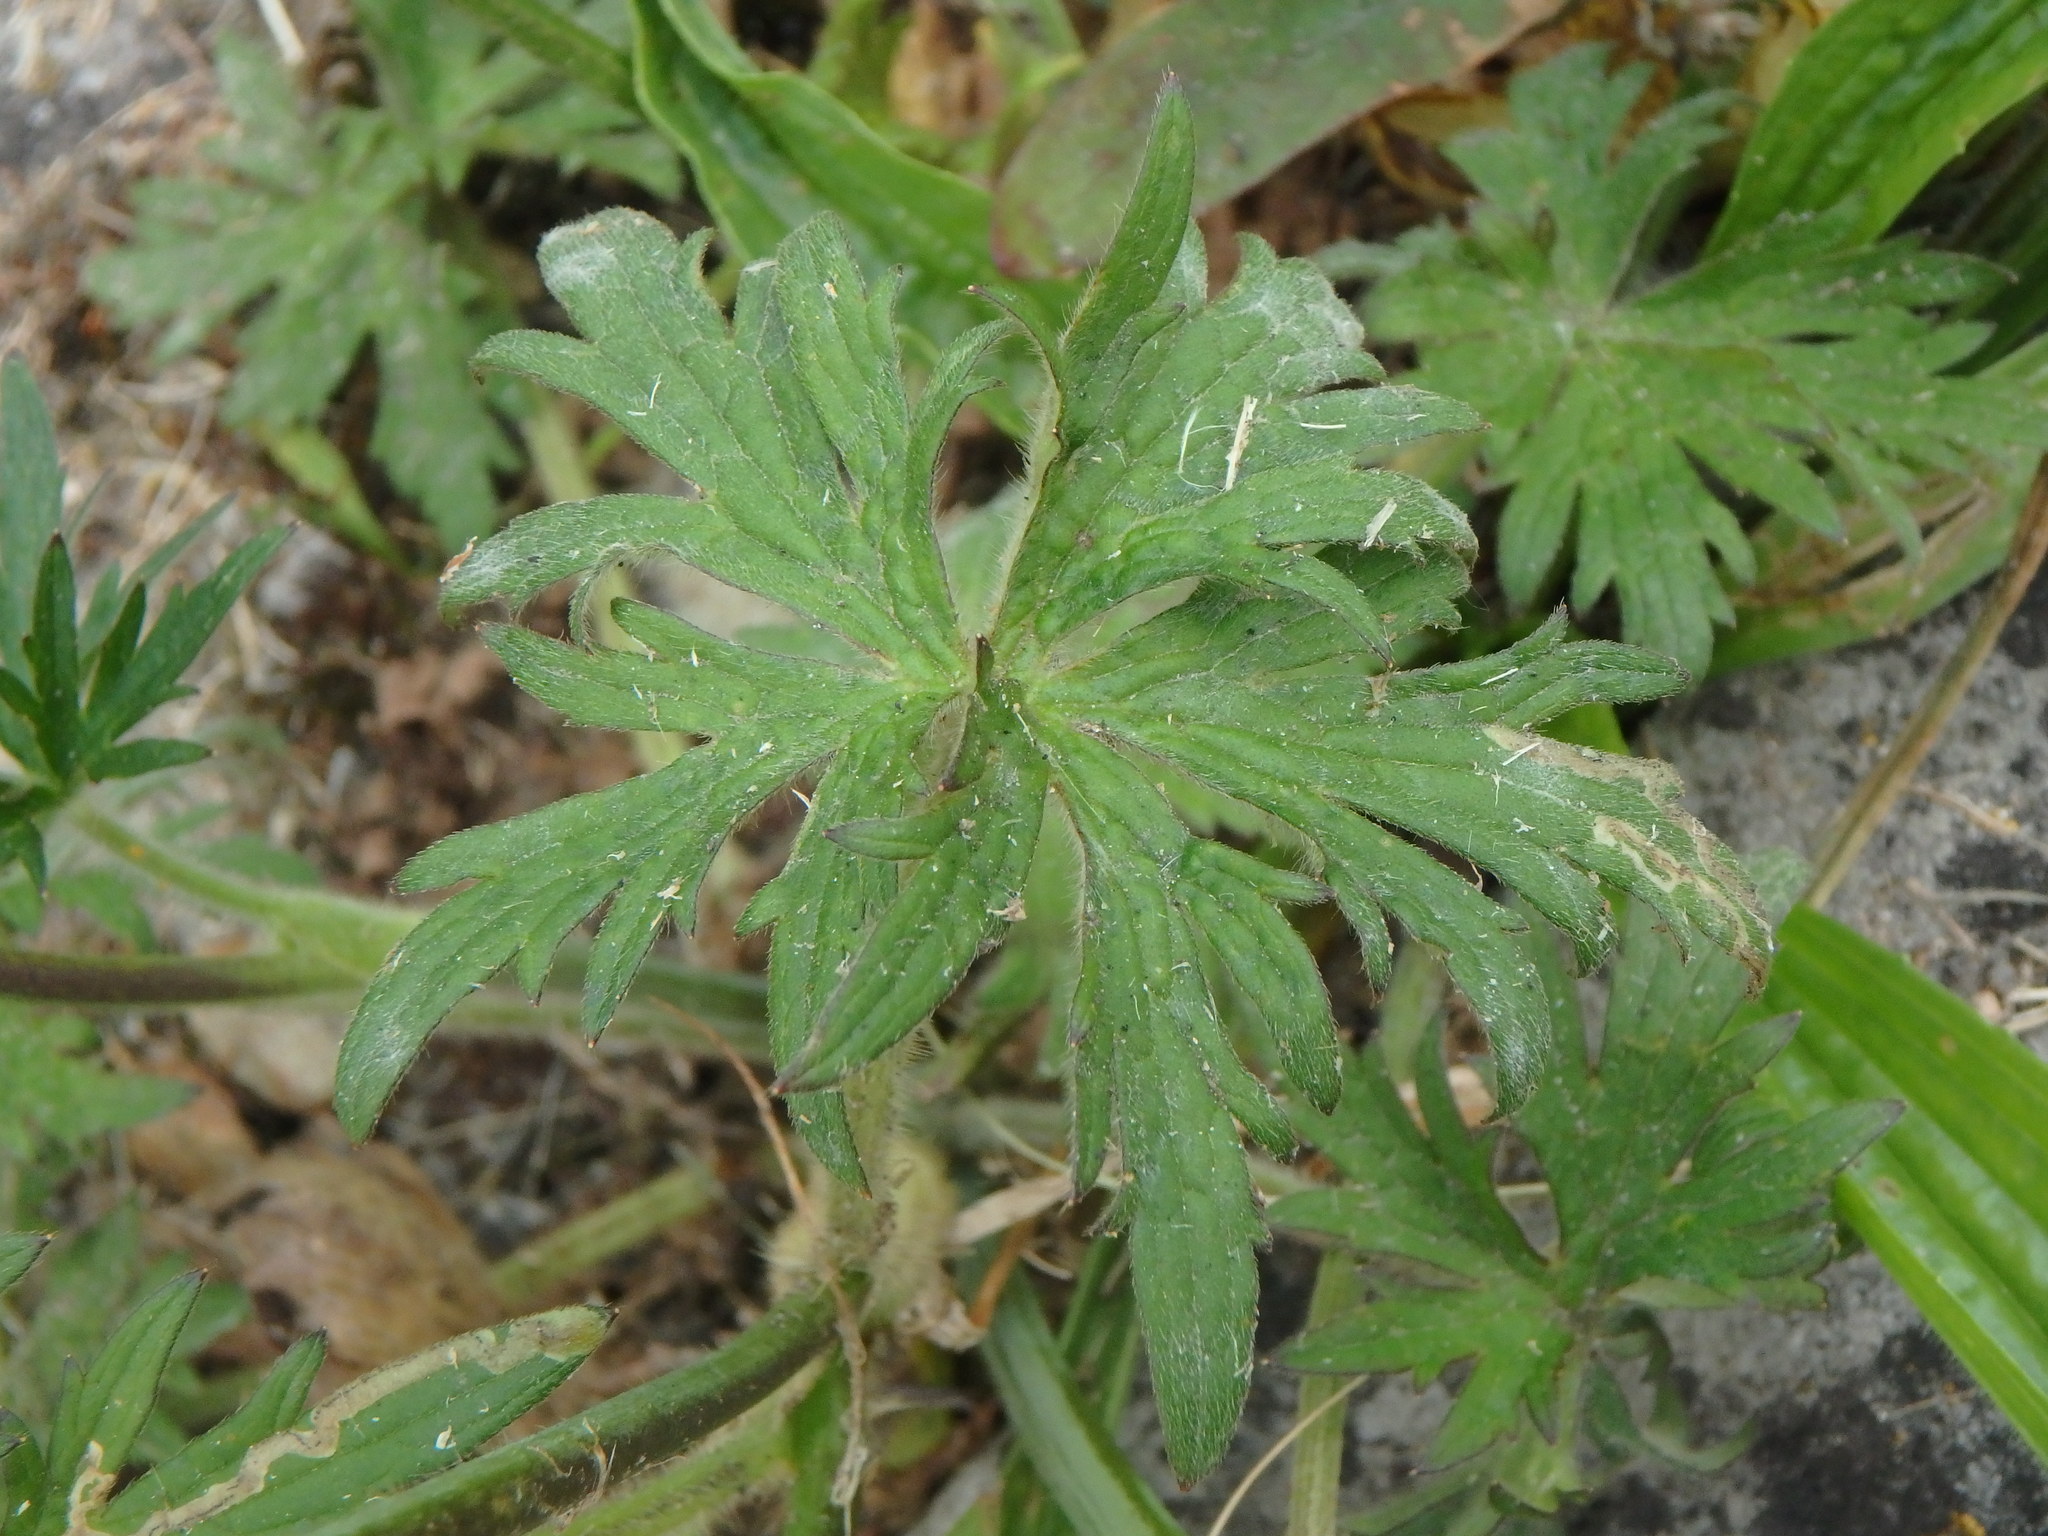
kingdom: Plantae
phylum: Tracheophyta
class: Magnoliopsida
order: Ranunculales
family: Ranunculaceae
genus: Ranunculus
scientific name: Ranunculus acris
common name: Meadow buttercup
